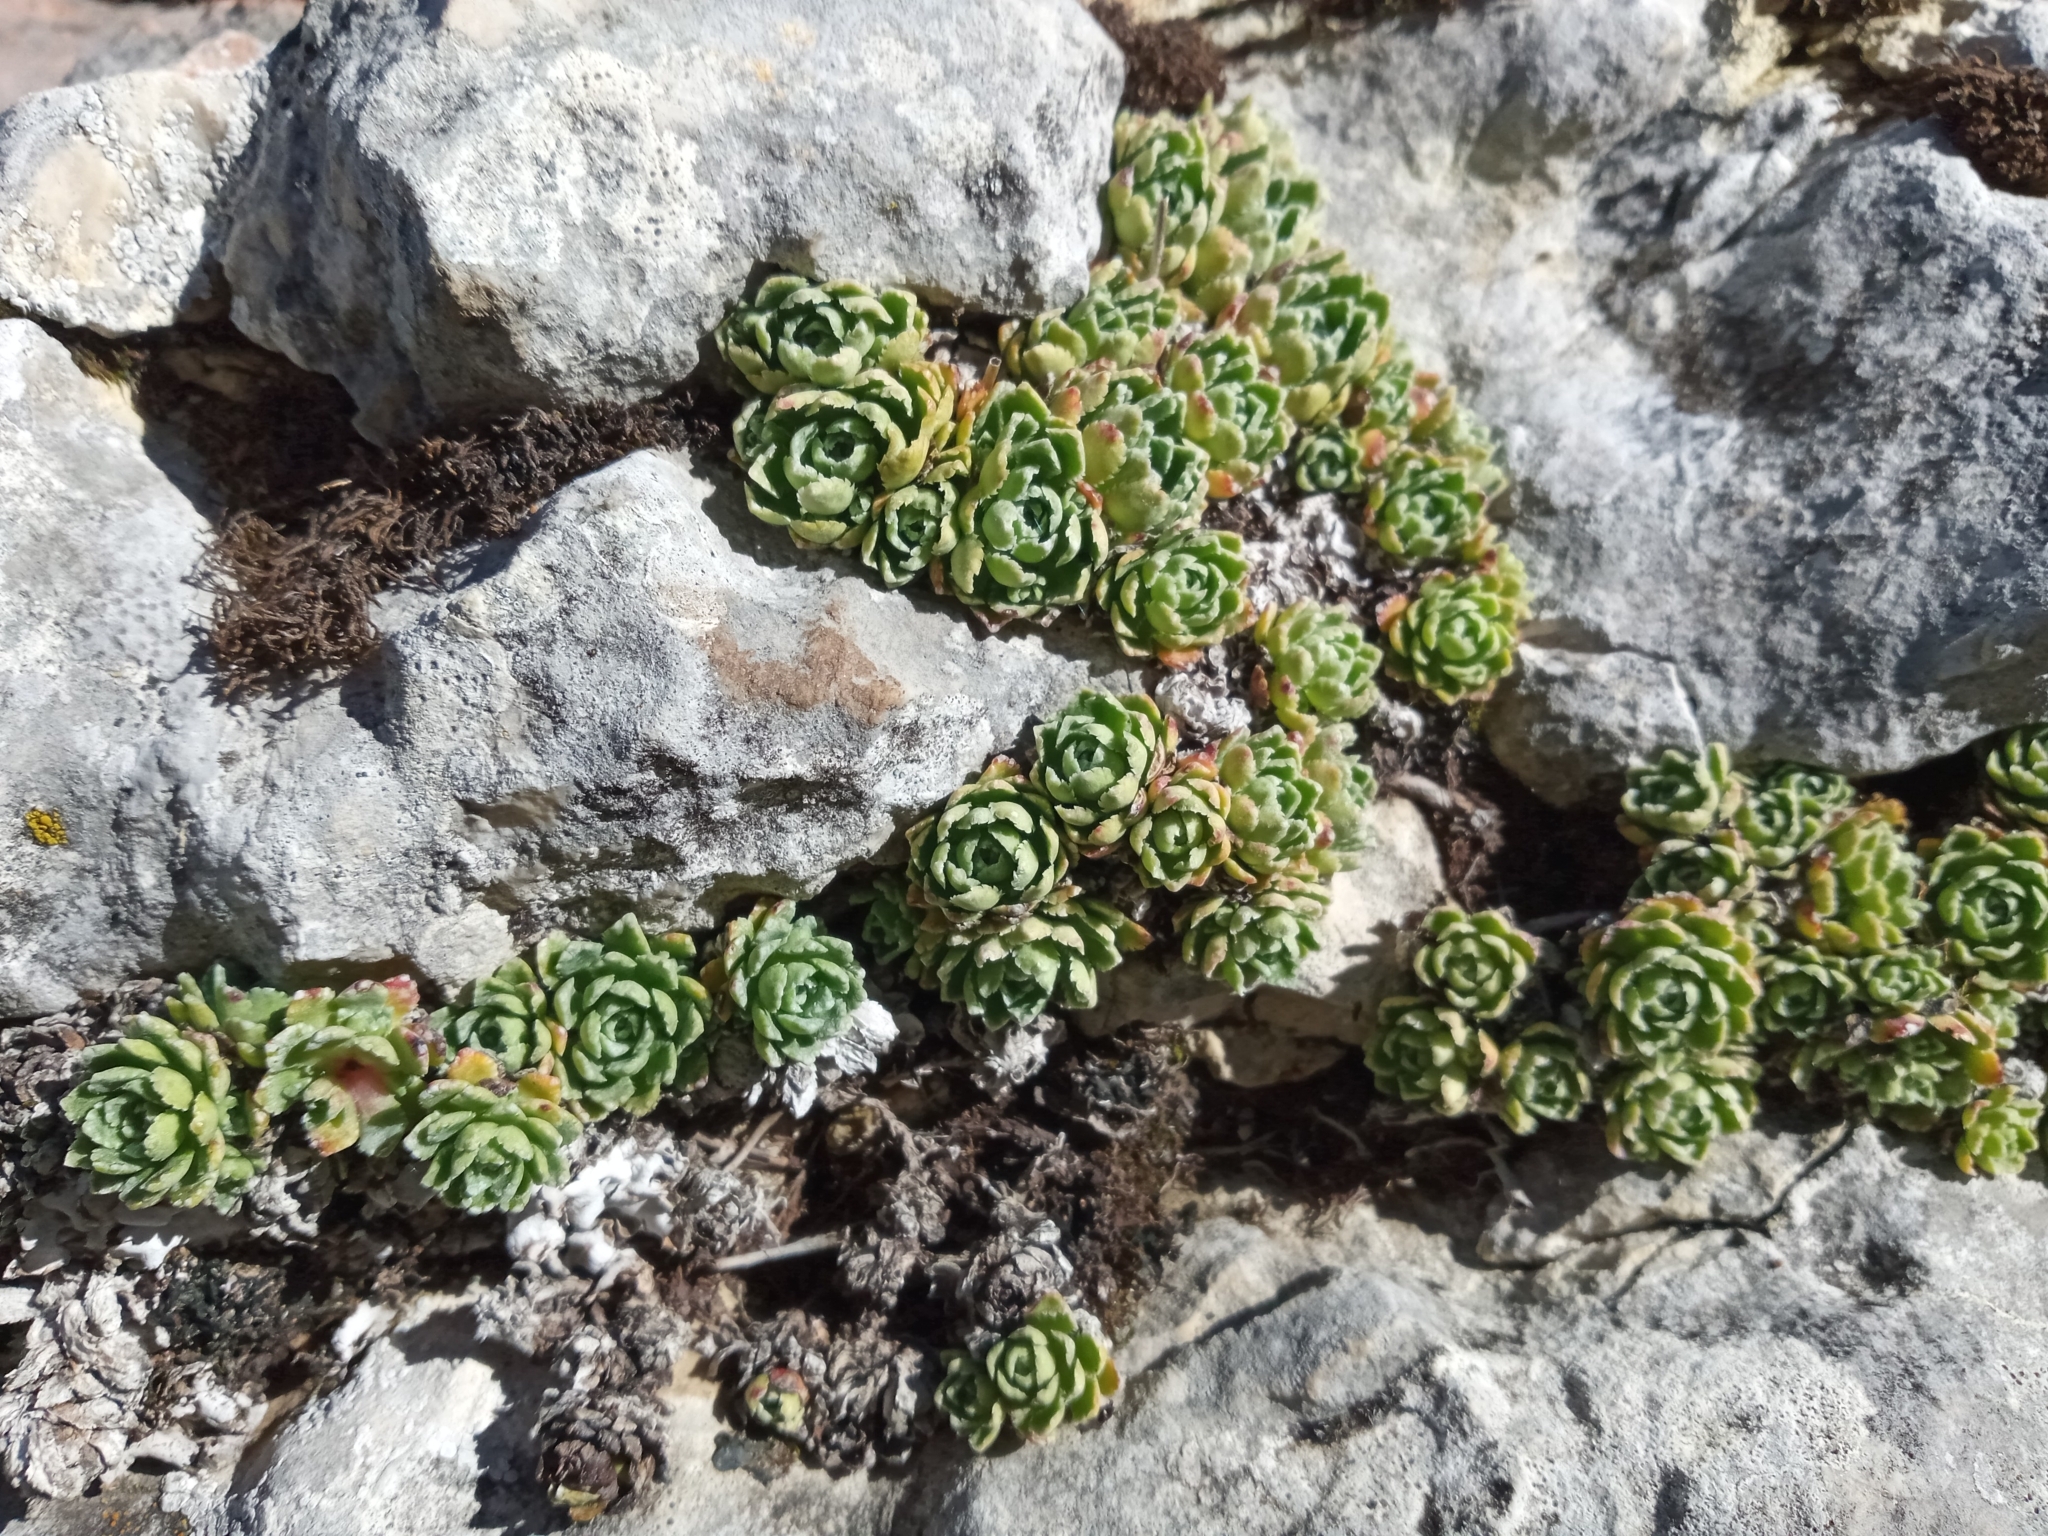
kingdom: Plantae
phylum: Tracheophyta
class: Magnoliopsida
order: Saxifragales
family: Saxifragaceae
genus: Saxifraga
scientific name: Saxifraga paniculata
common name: Livelong saxifrage
